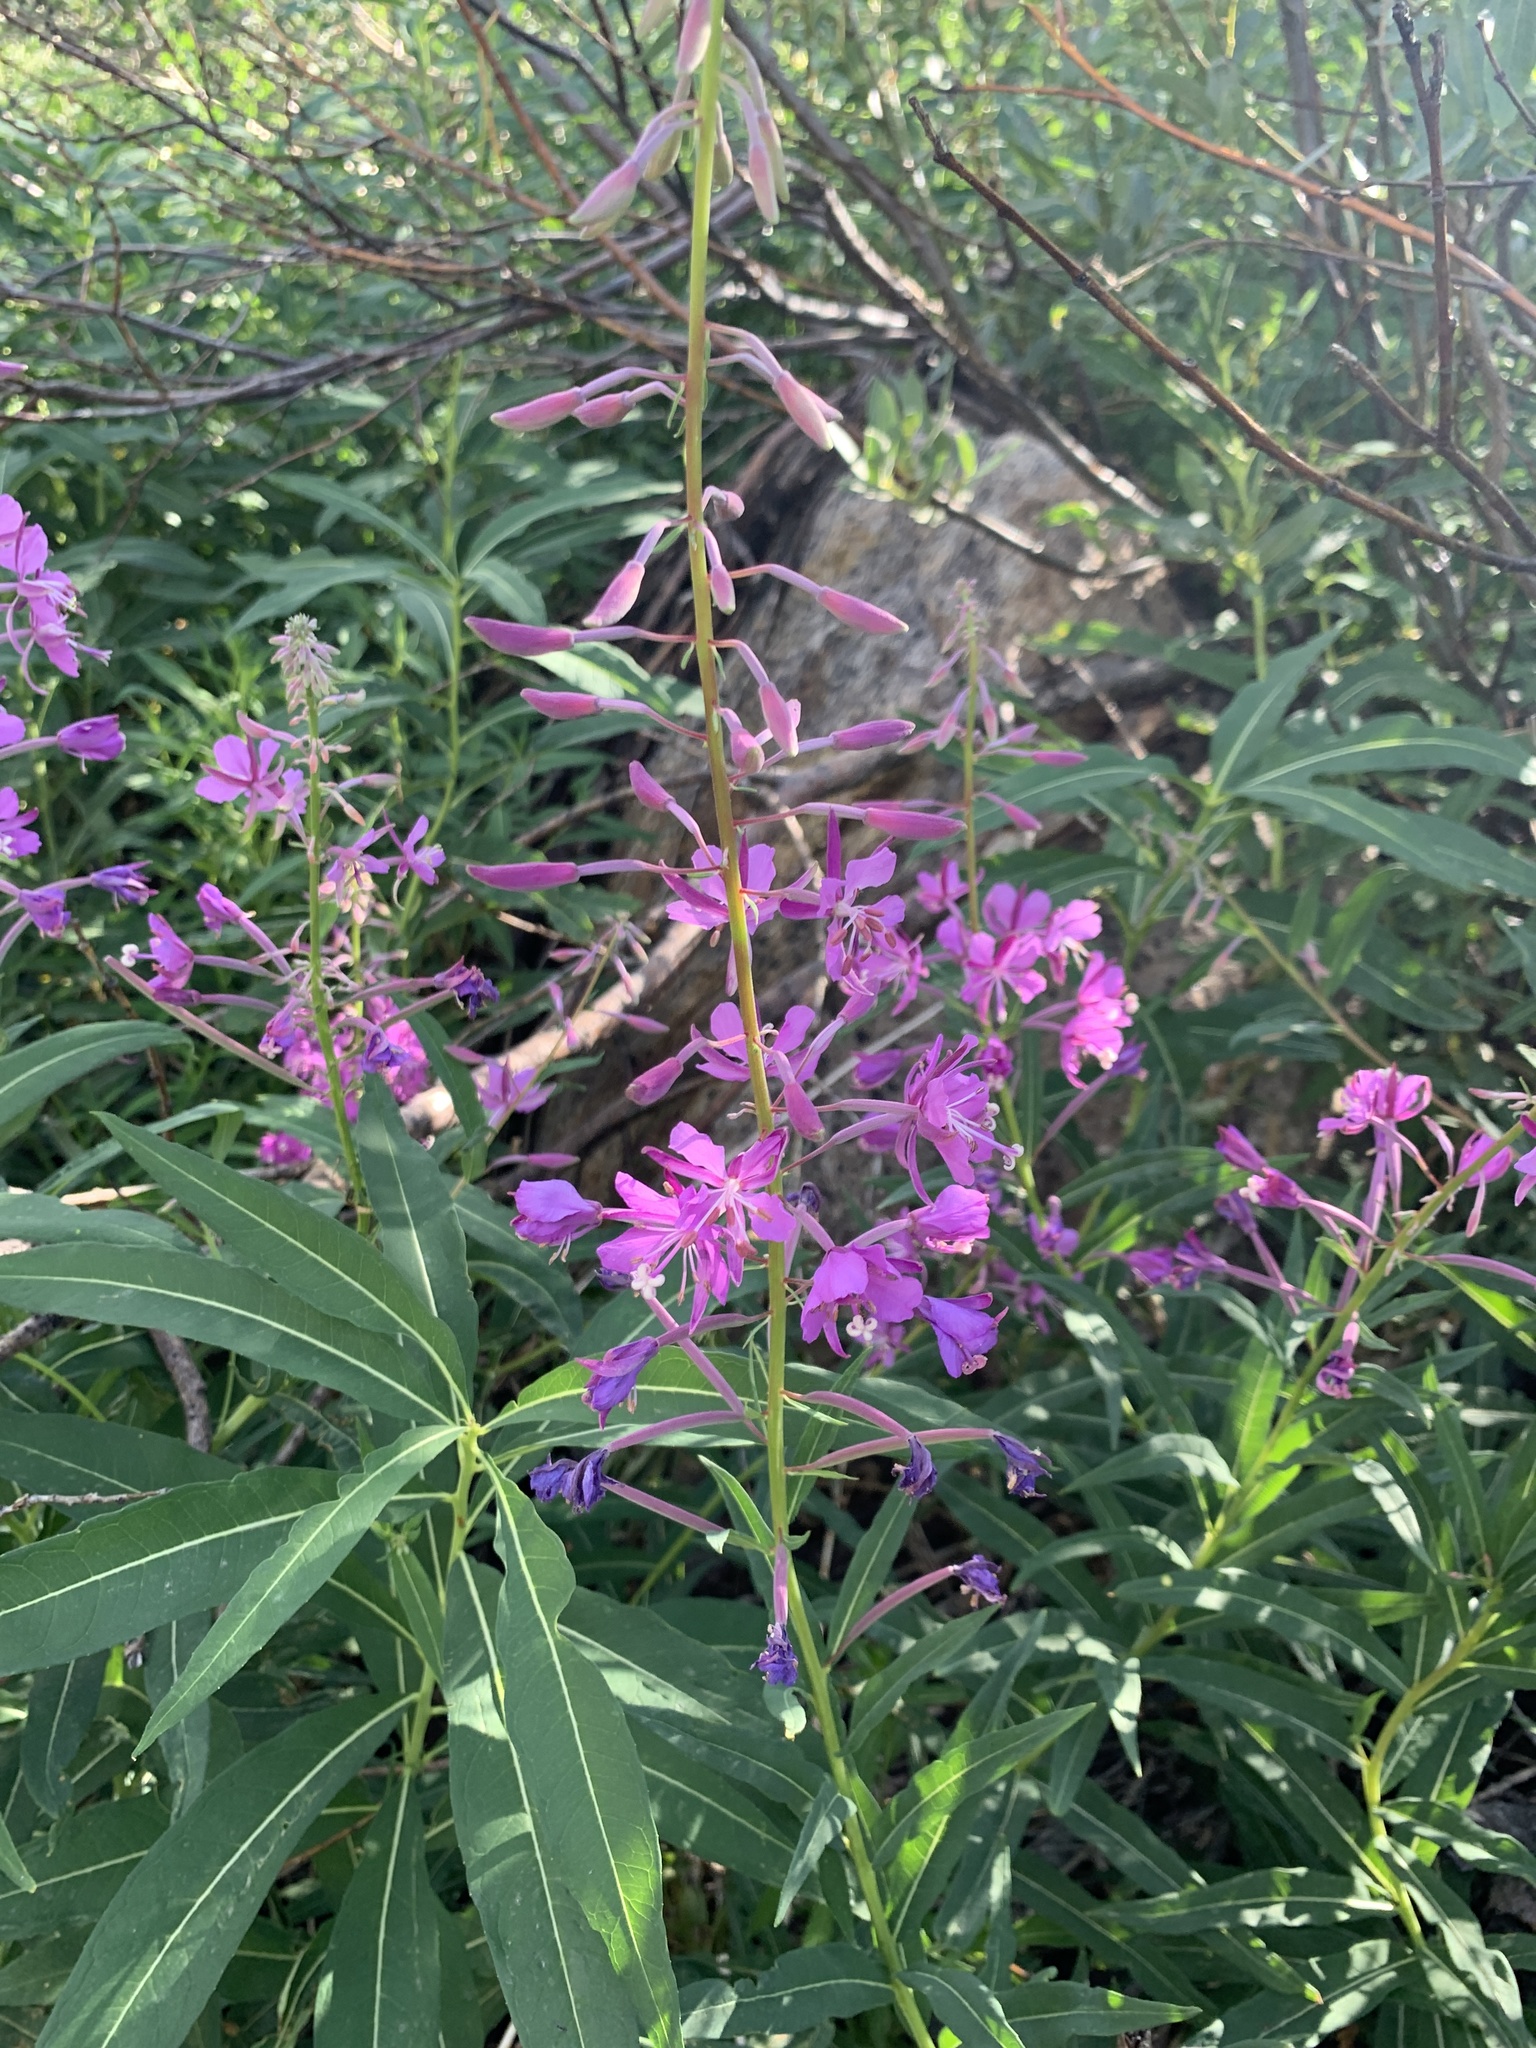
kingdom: Plantae
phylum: Tracheophyta
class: Magnoliopsida
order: Myrtales
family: Onagraceae
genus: Chamaenerion
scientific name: Chamaenerion angustifolium
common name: Fireweed
